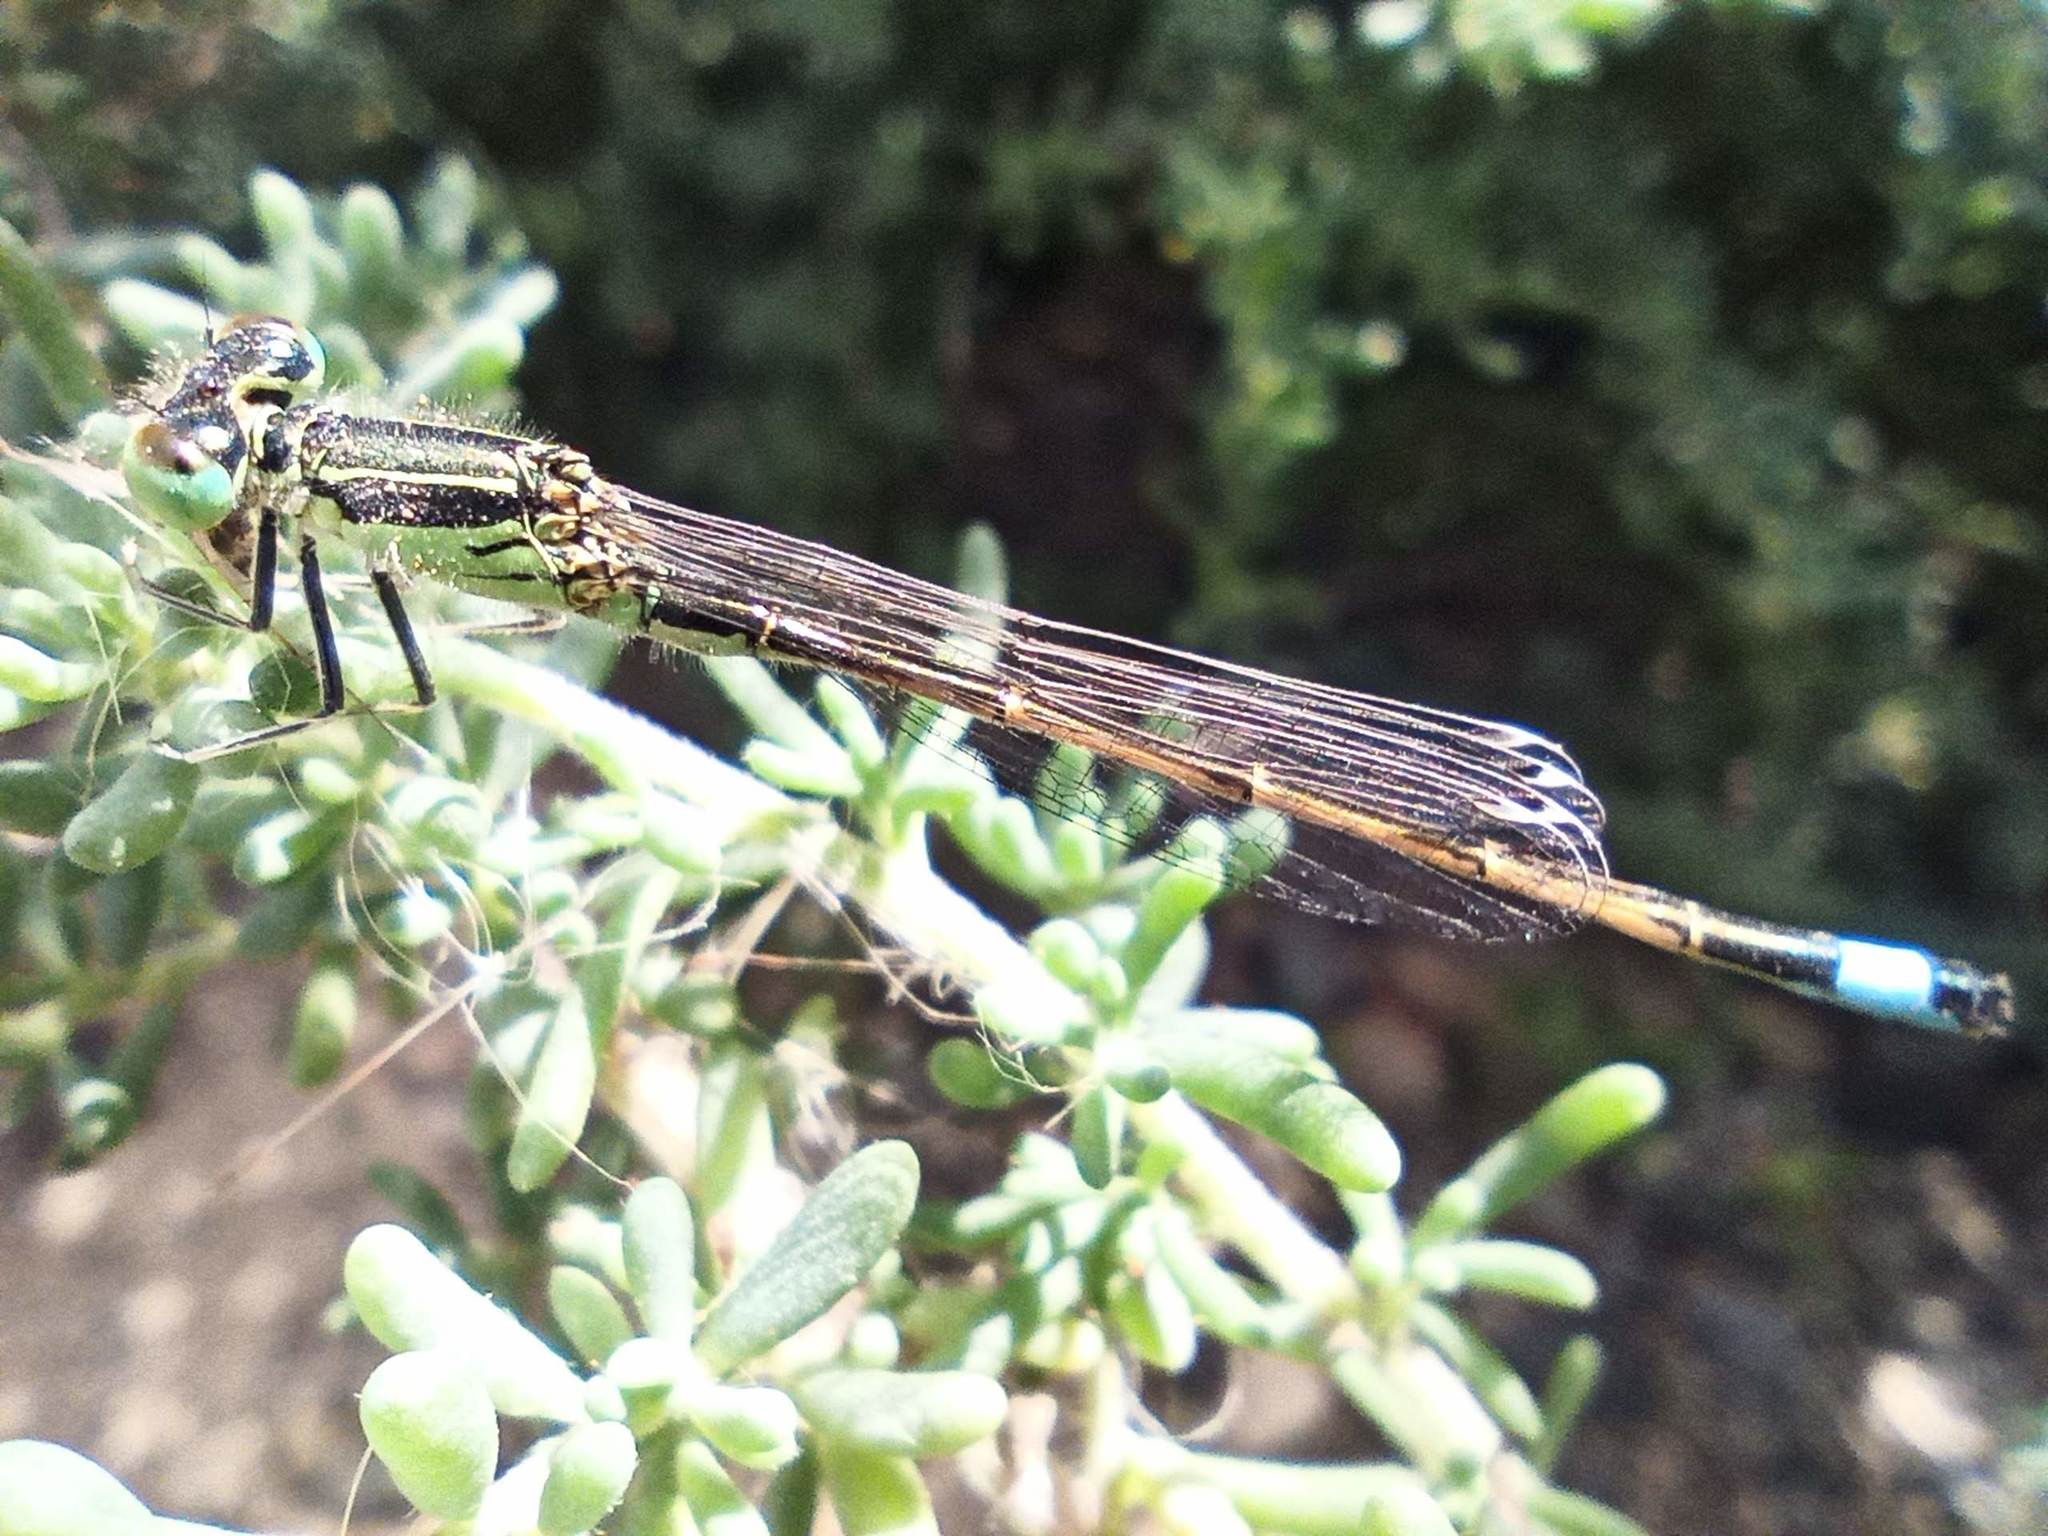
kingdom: Animalia
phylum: Arthropoda
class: Insecta
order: Odonata
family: Coenagrionidae
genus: Ischnura
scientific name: Ischnura saharensis
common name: Sahara bluetail
